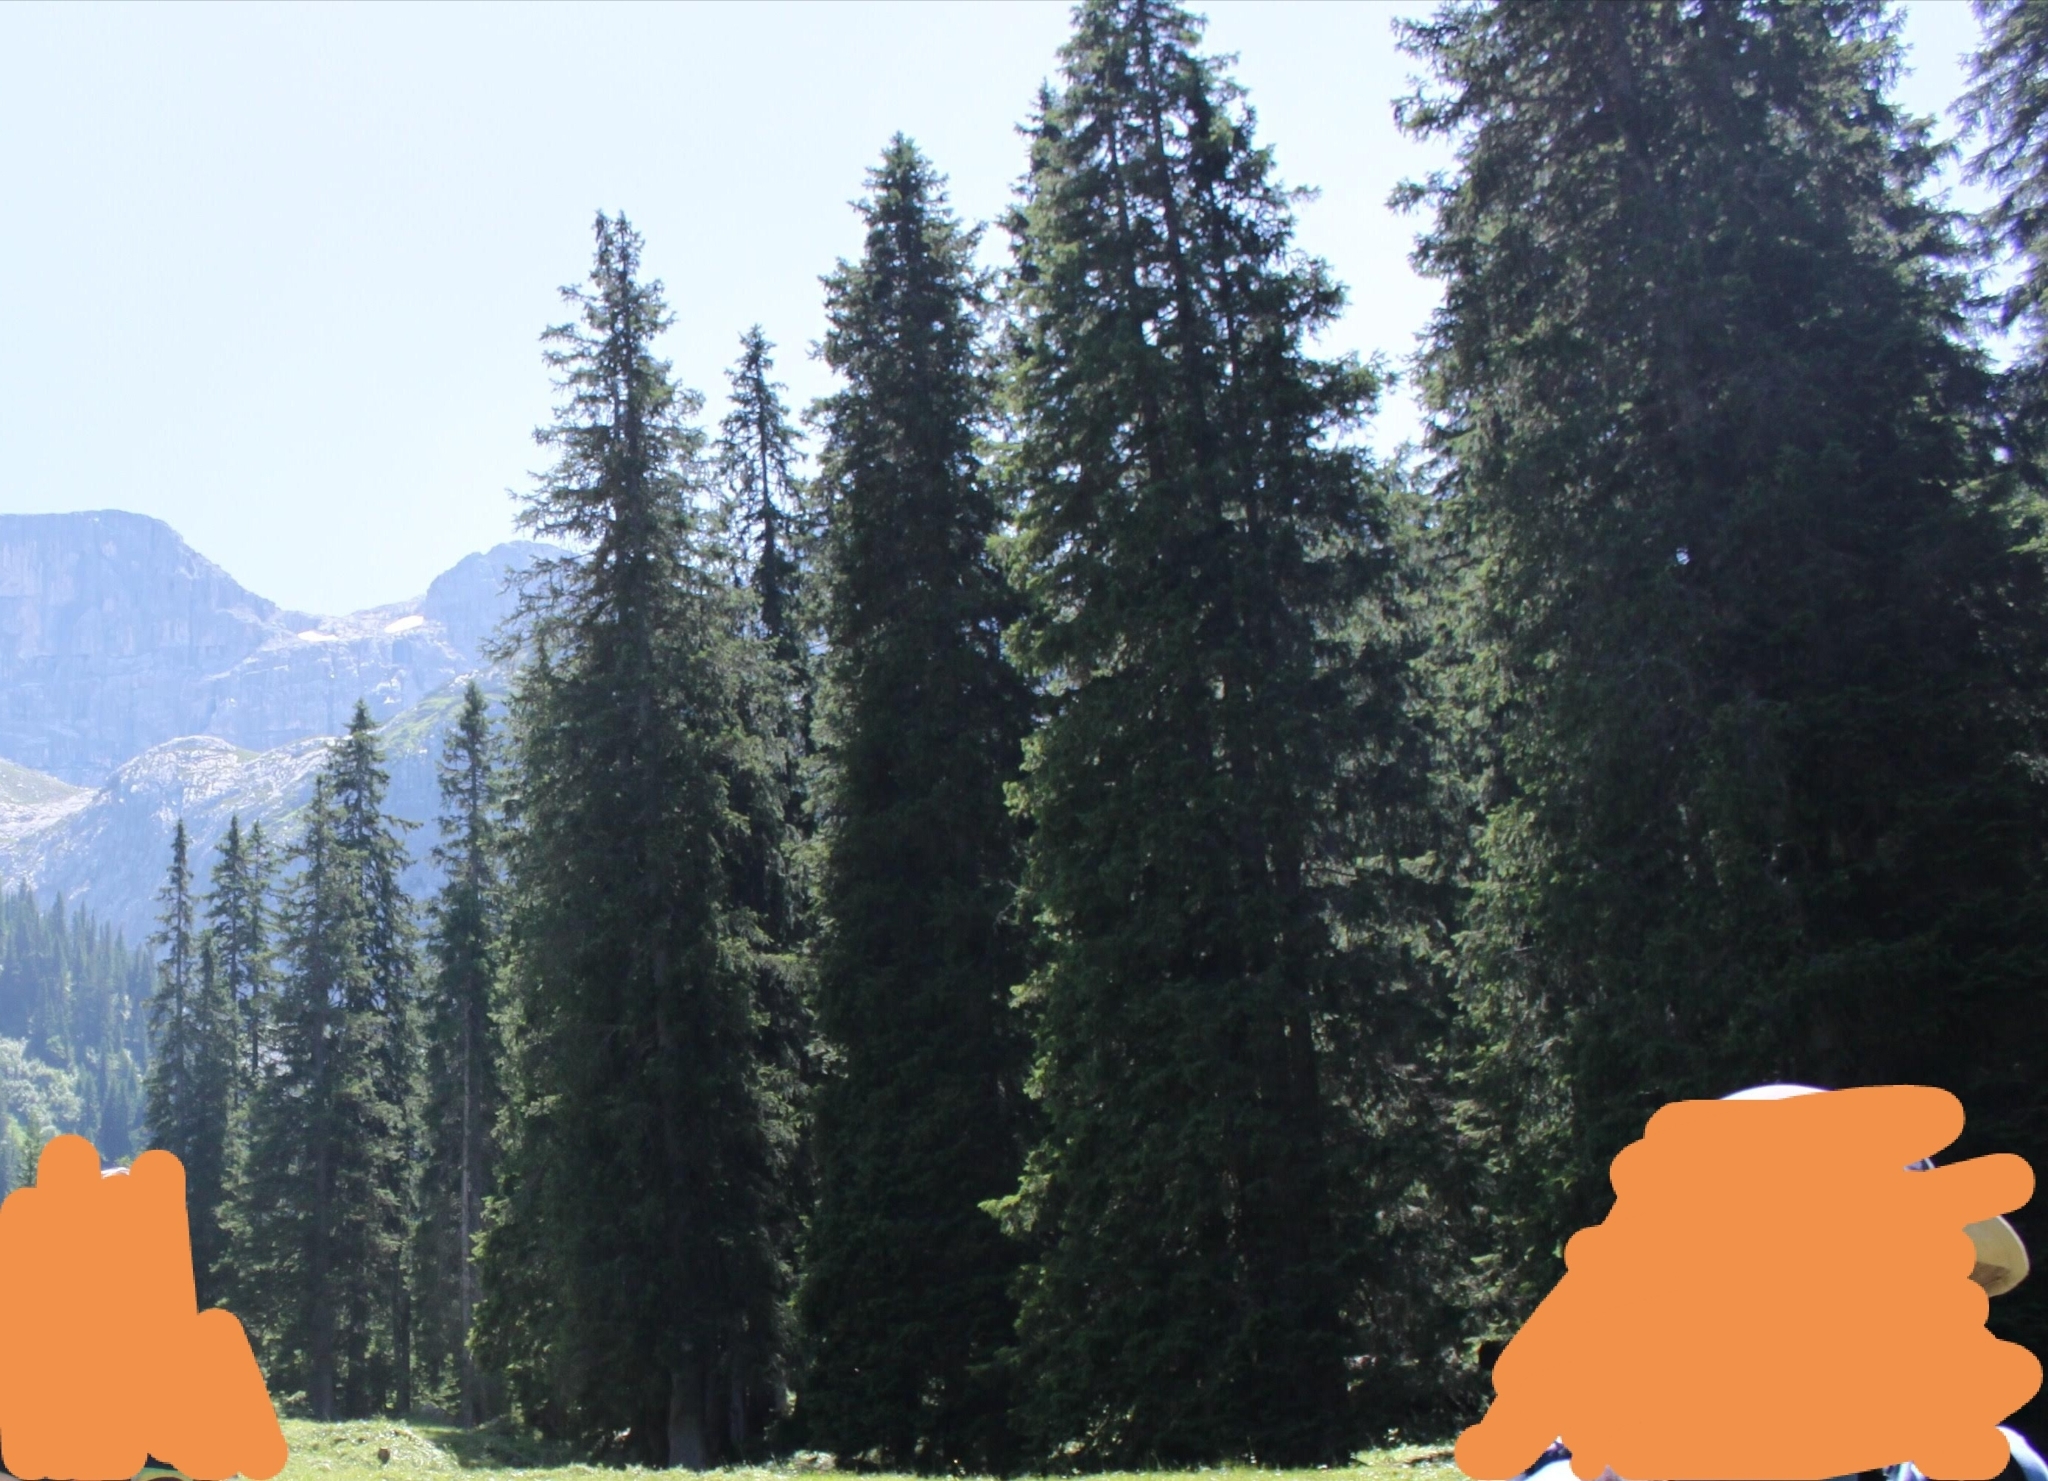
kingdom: Plantae
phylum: Tracheophyta
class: Pinopsida
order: Pinales
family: Pinaceae
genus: Picea
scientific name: Picea abies
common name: Norway spruce
